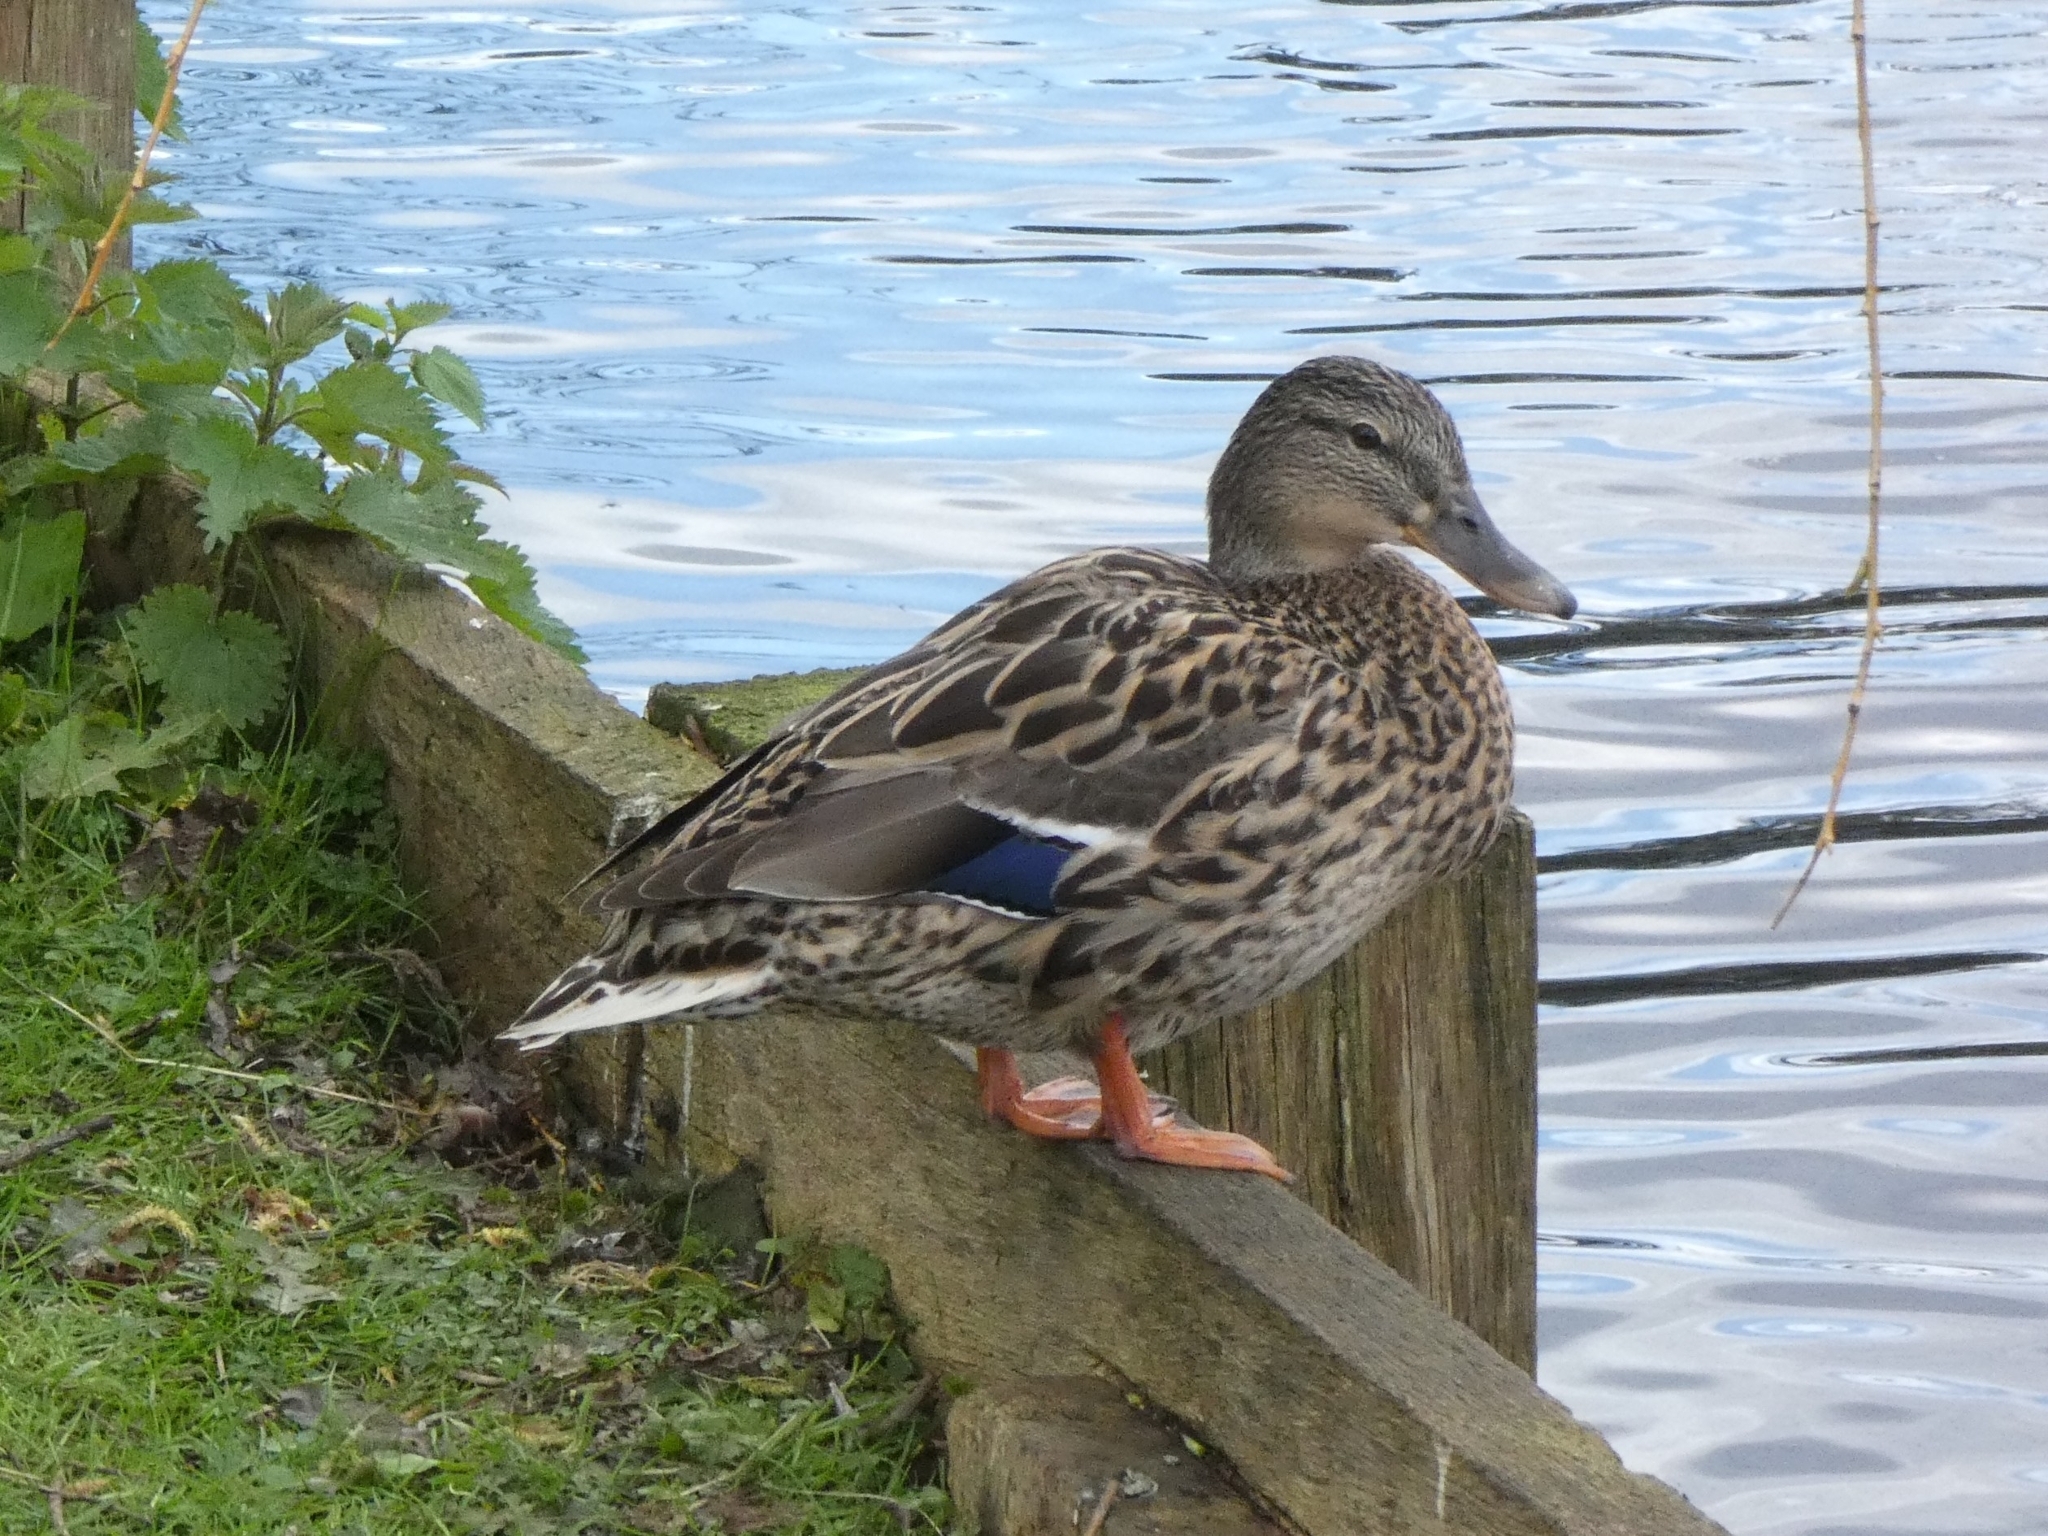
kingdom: Animalia
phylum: Chordata
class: Aves
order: Anseriformes
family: Anatidae
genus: Anas
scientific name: Anas platyrhynchos
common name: Mallard
